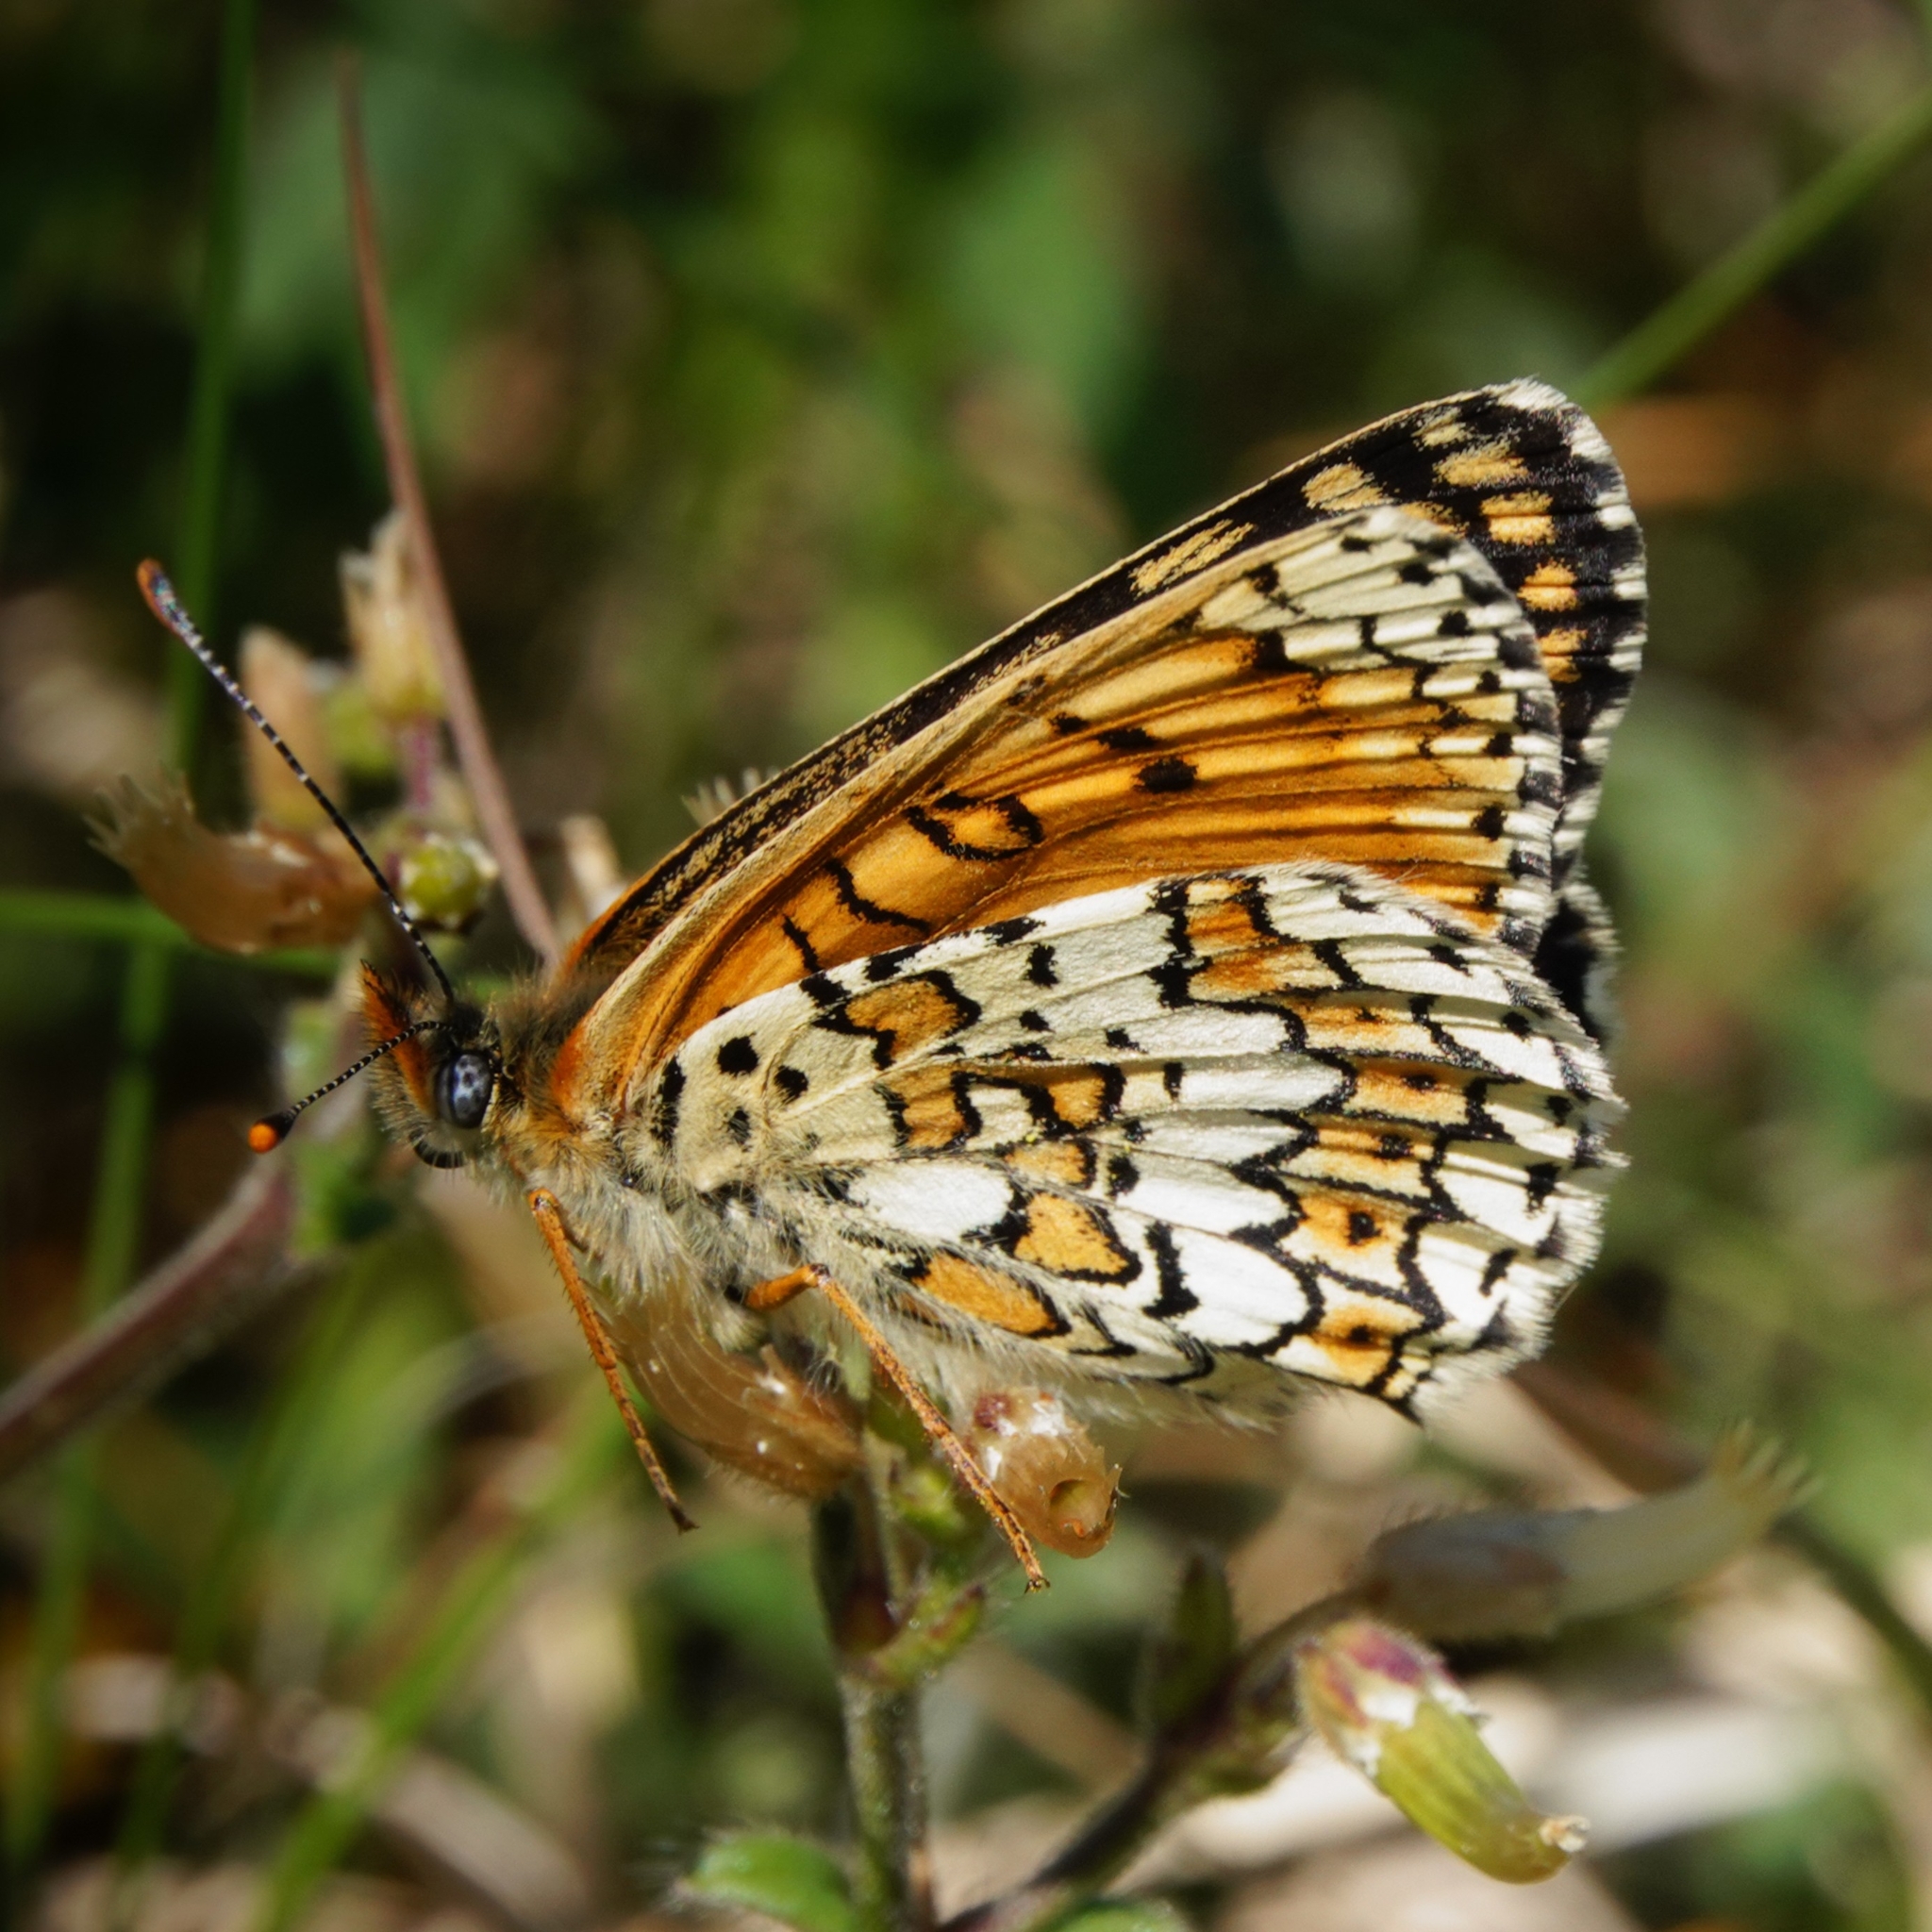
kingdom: Animalia
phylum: Arthropoda
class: Insecta
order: Lepidoptera
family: Nymphalidae
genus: Melitaea
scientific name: Melitaea cinxia
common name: Glanville fritillary
